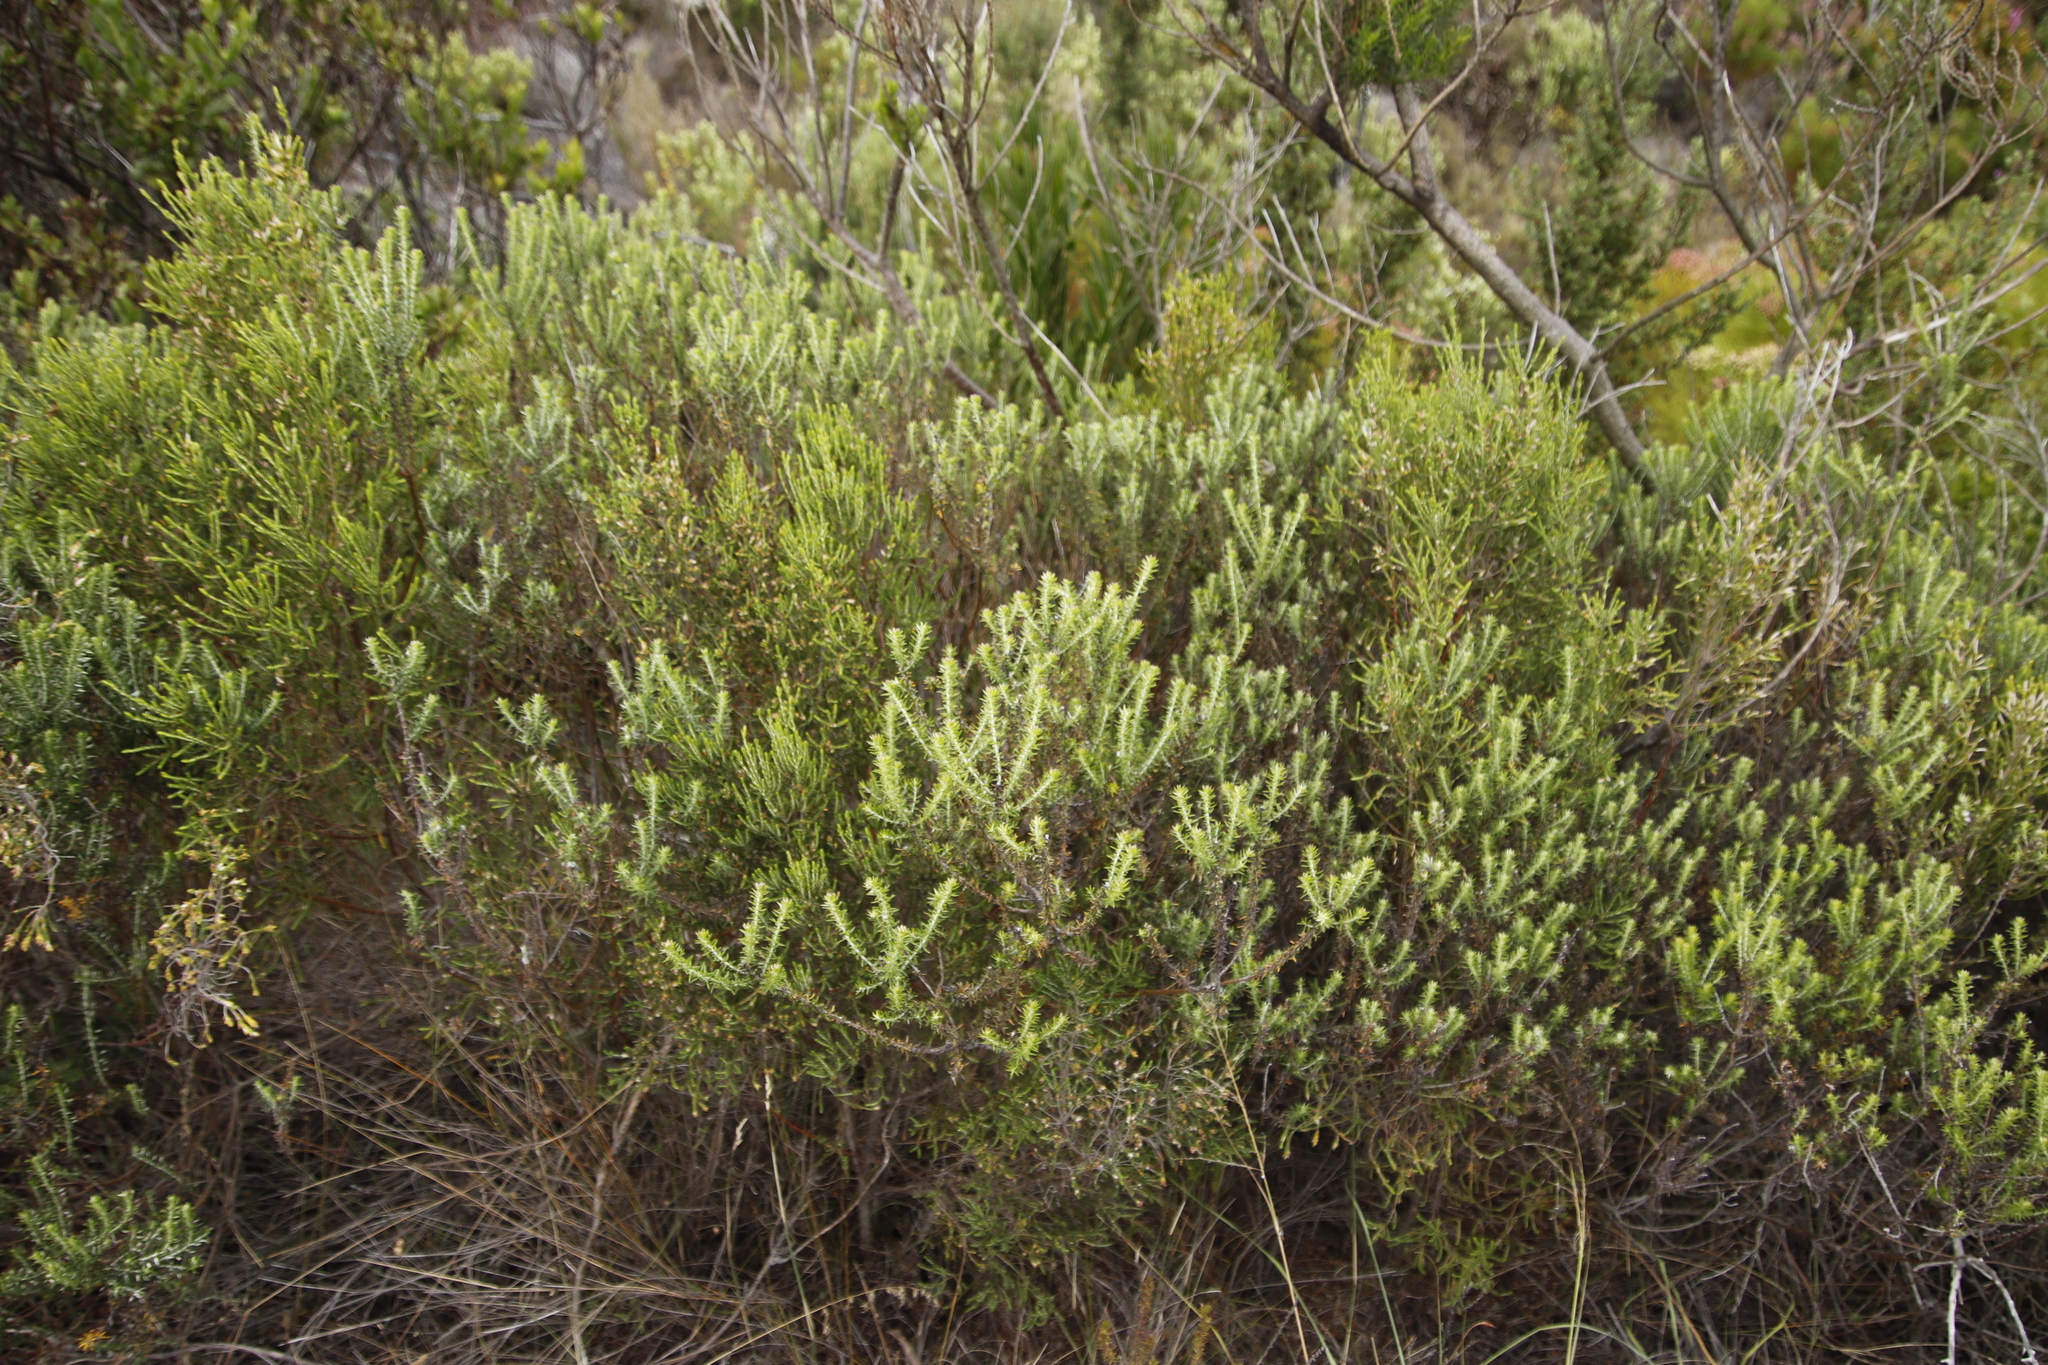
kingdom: Plantae
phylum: Tracheophyta
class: Magnoliopsida
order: Asterales
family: Asteraceae
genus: Metalasia
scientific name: Metalasia densa
